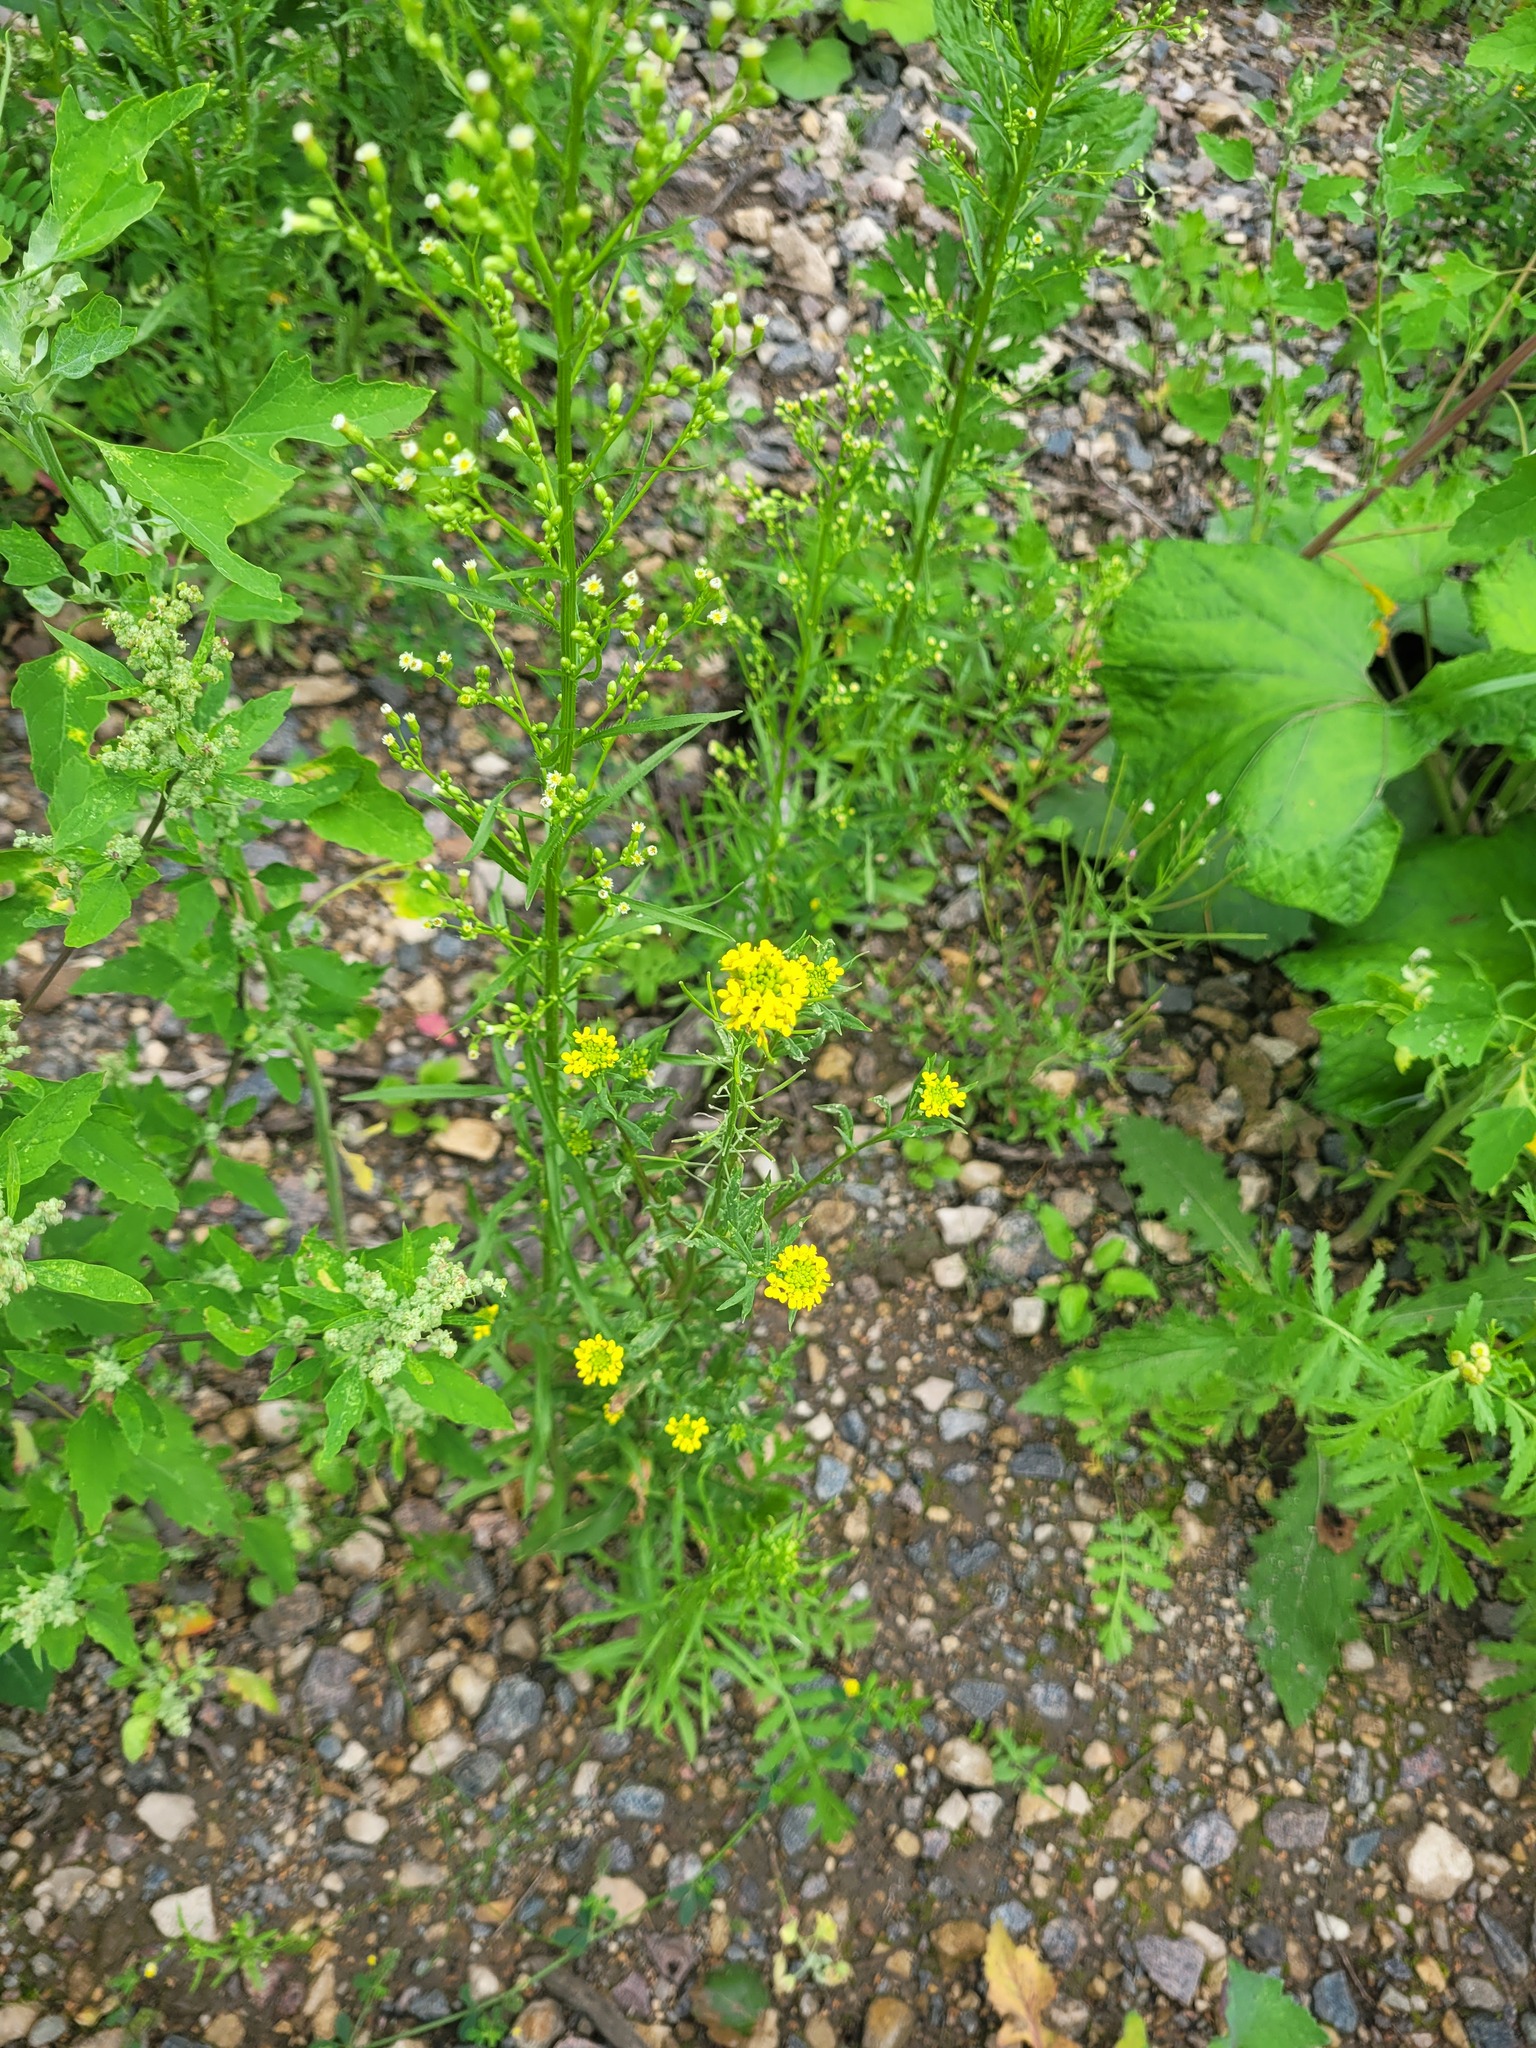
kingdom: Plantae
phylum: Tracheophyta
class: Magnoliopsida
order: Brassicales
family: Brassicaceae
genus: Erysimum
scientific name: Erysimum cheiranthoides
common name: Treacle mustard
